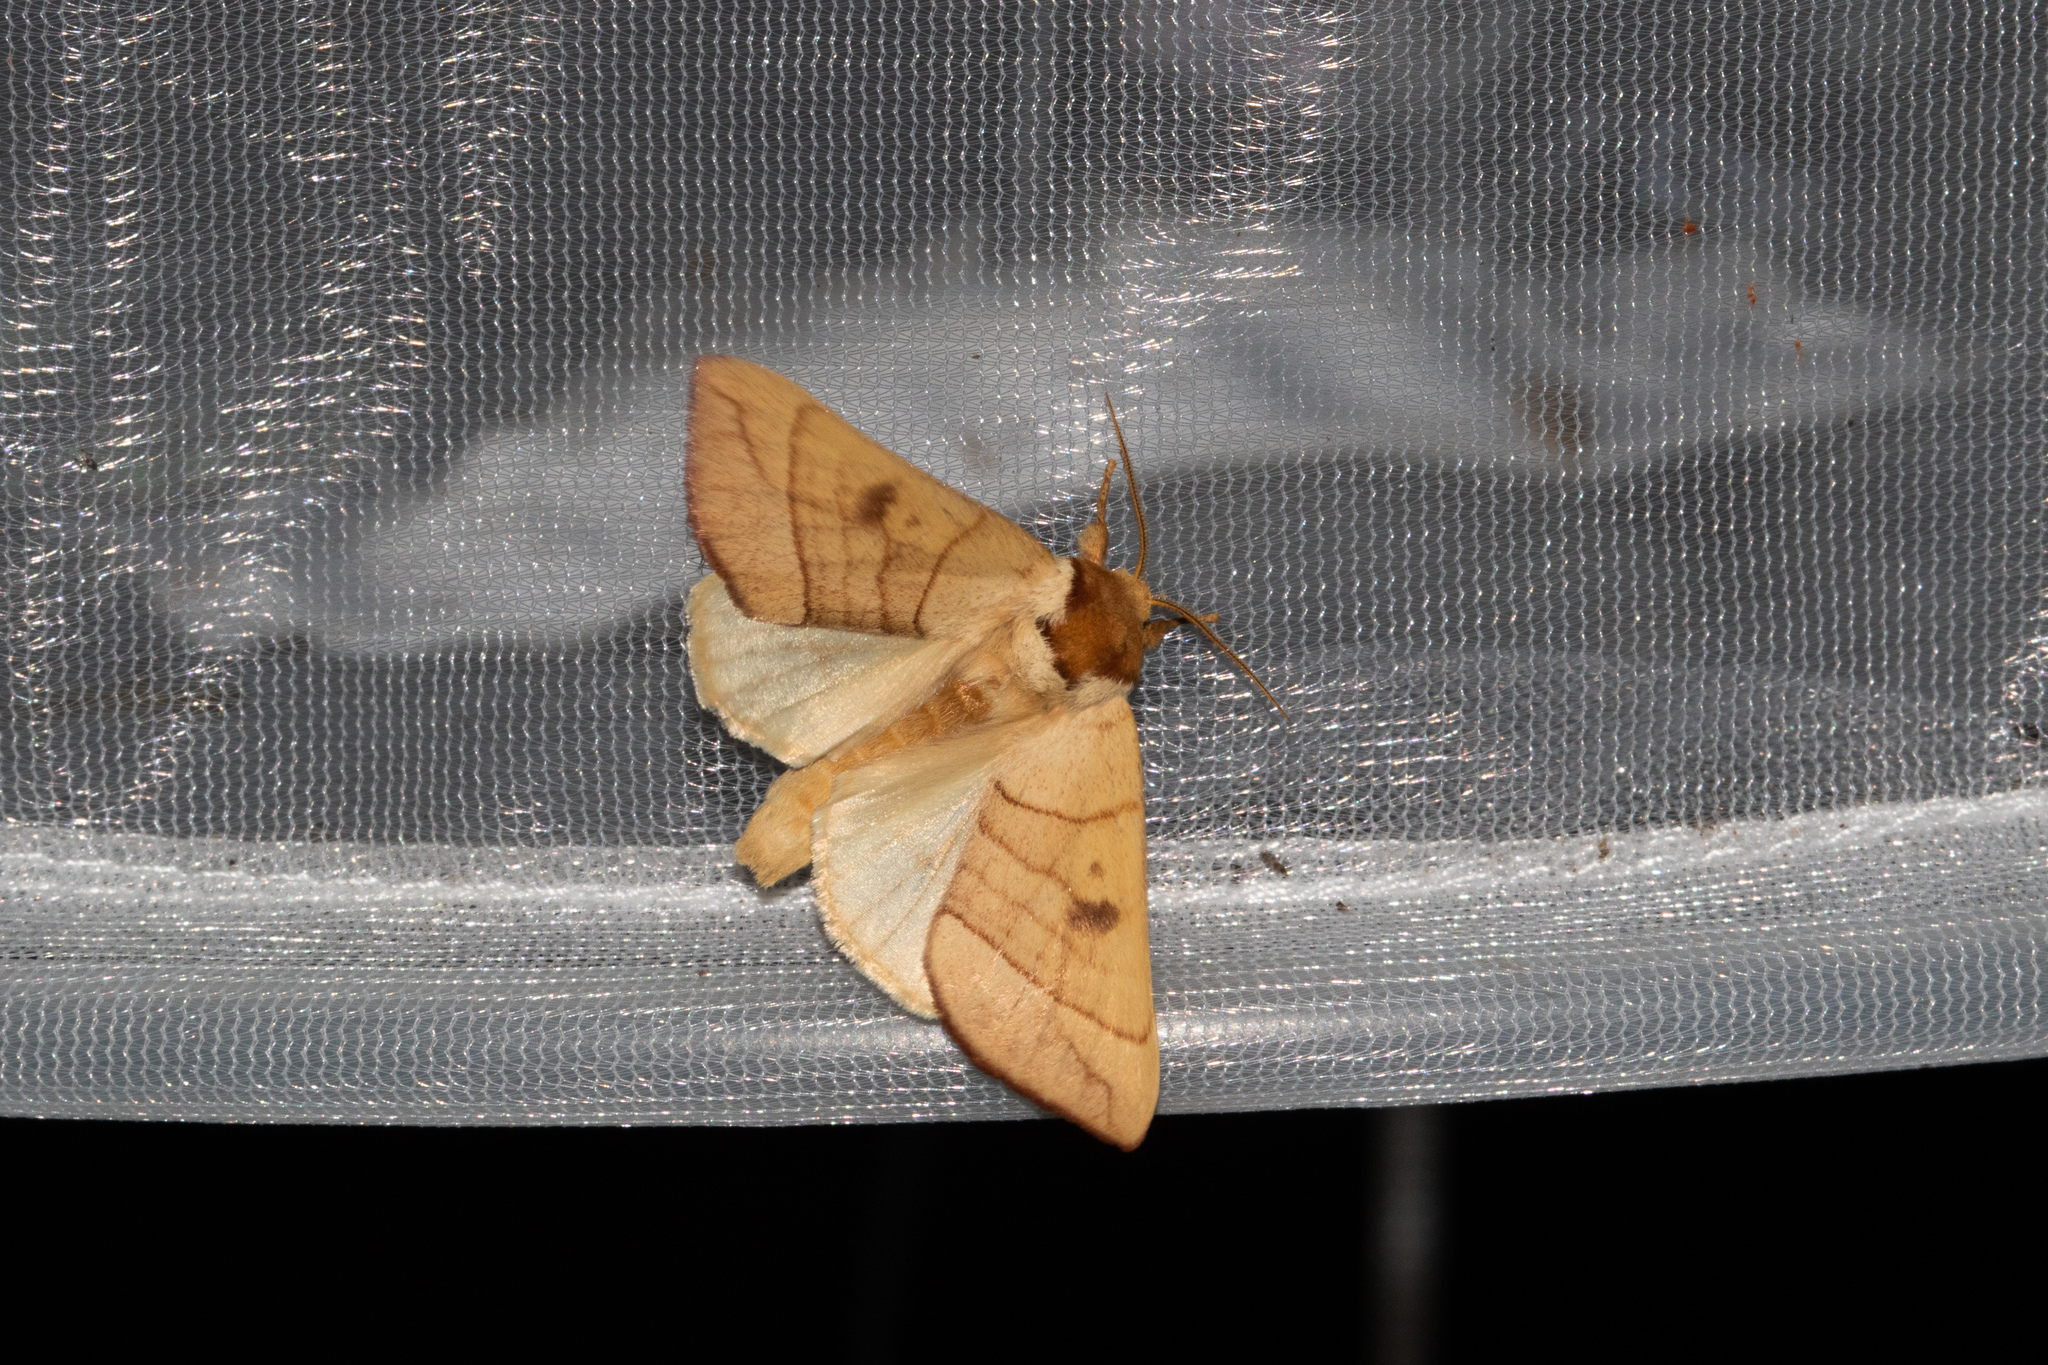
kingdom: Animalia
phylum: Arthropoda
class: Insecta
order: Lepidoptera
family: Notodontidae
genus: Datana
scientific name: Datana perspicua
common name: Spotted datana
